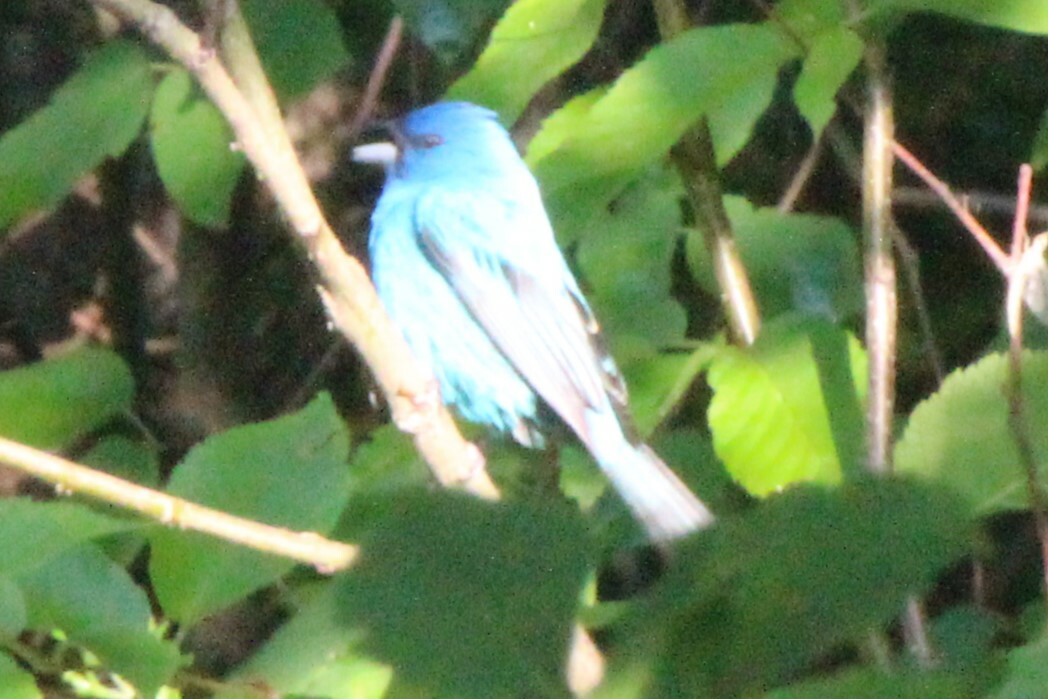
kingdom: Animalia
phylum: Chordata
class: Aves
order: Passeriformes
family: Cardinalidae
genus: Passerina
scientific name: Passerina cyanea
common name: Indigo bunting
